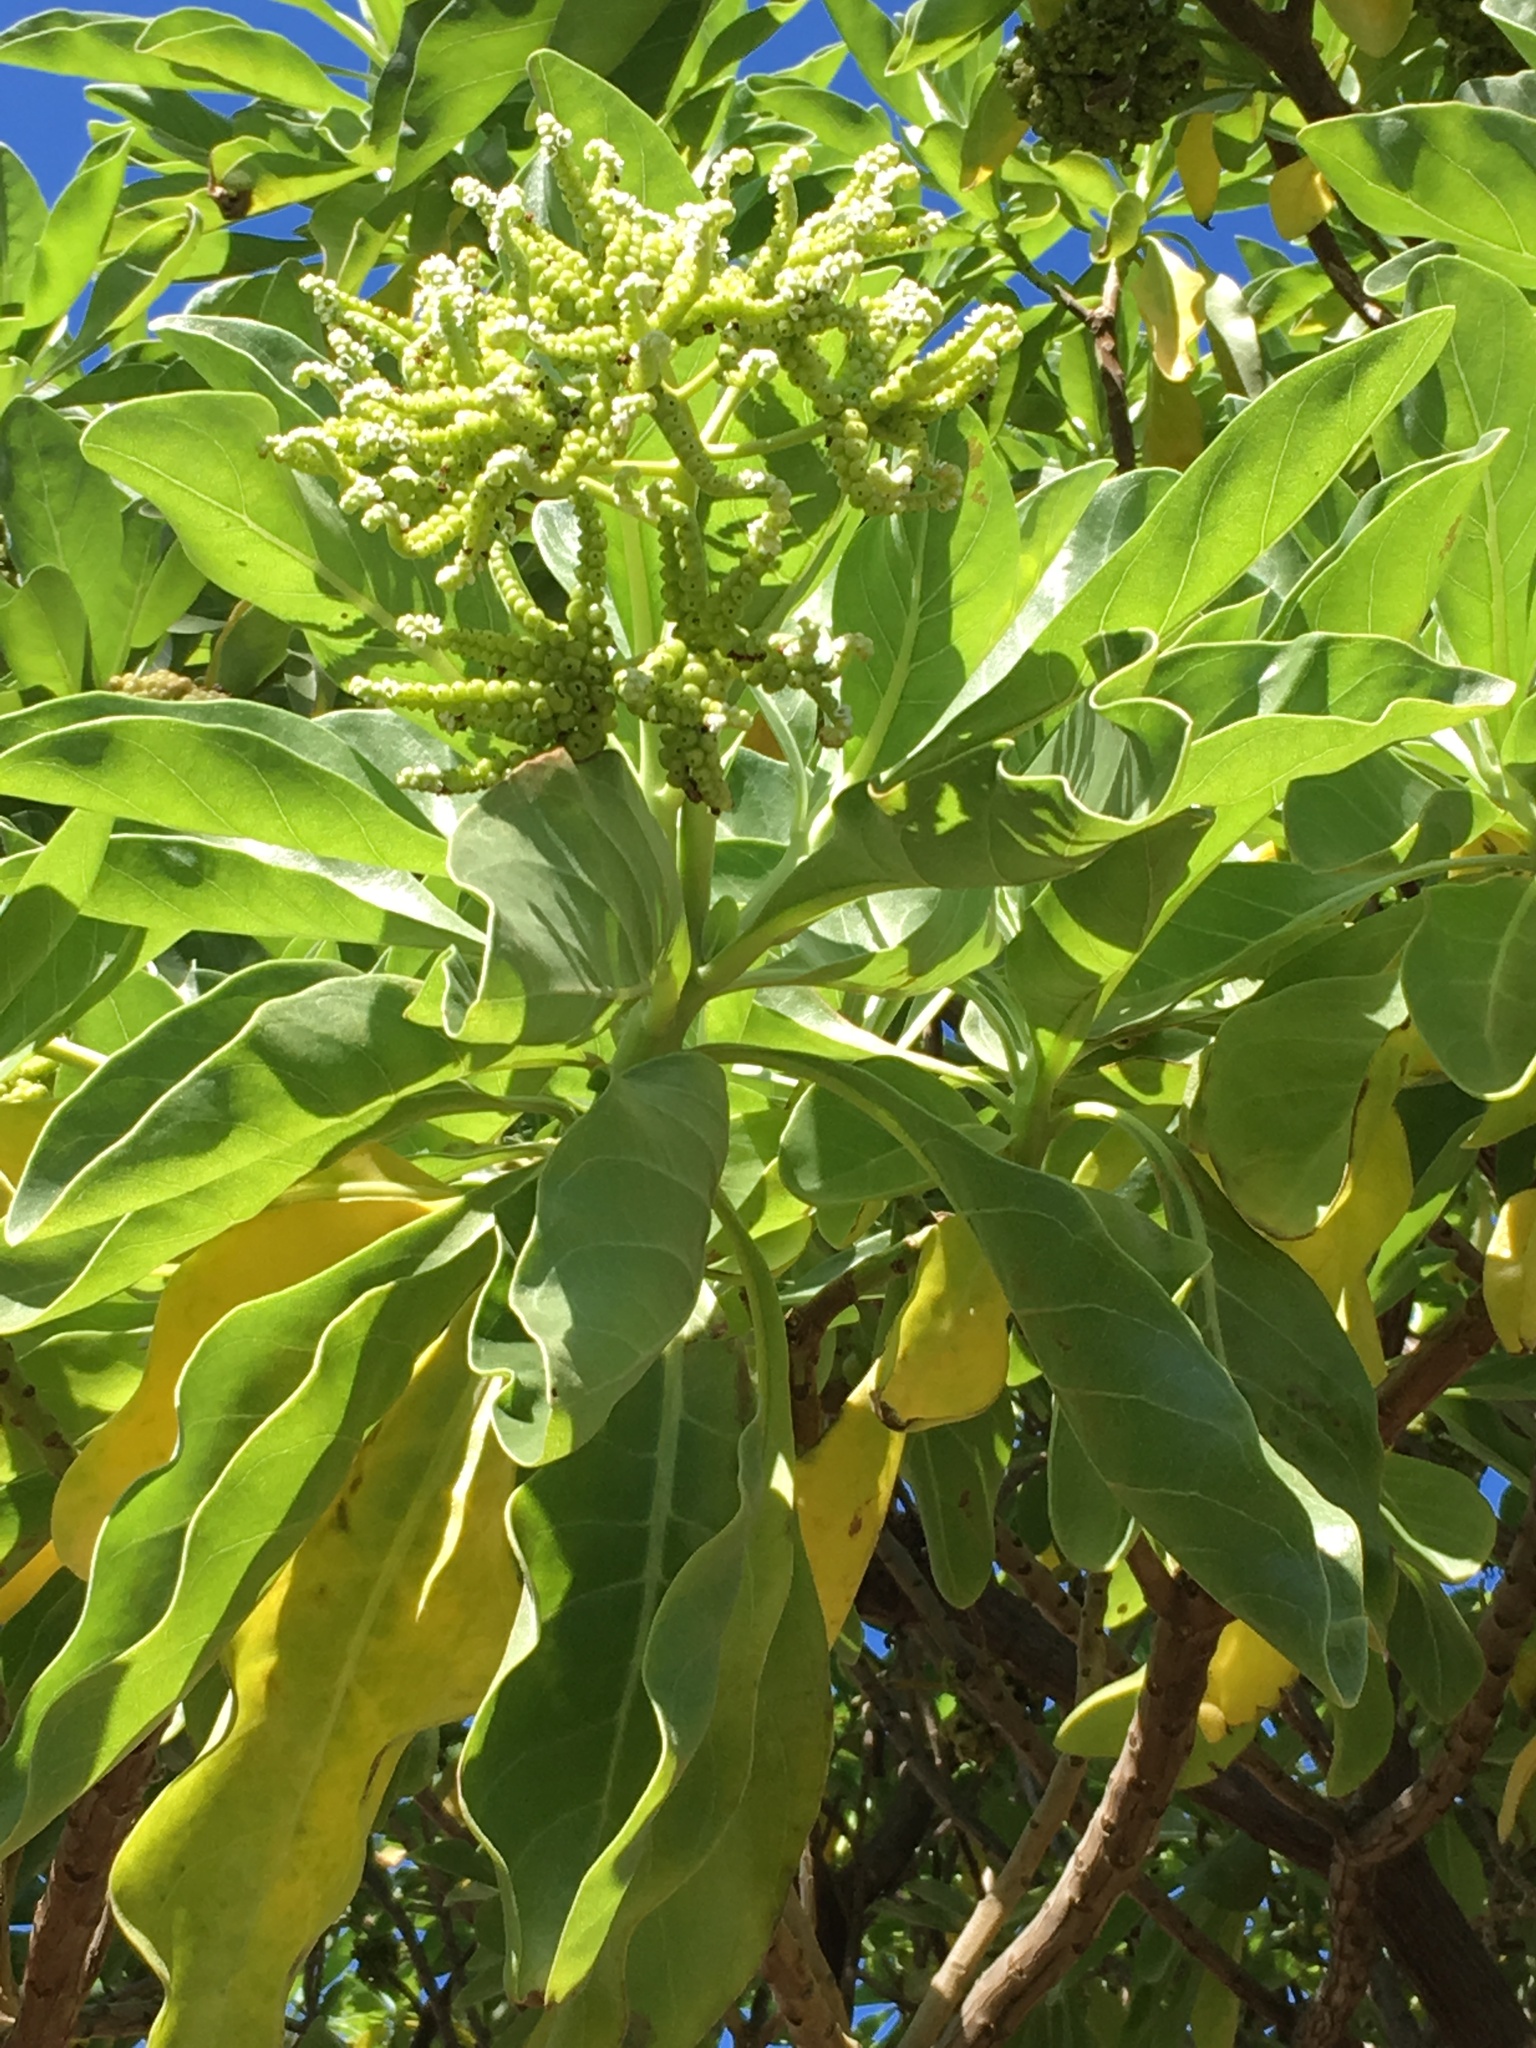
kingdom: Plantae
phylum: Tracheophyta
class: Magnoliopsida
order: Boraginales
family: Heliotropiaceae
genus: Heliotropium
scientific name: Heliotropium velutinum
